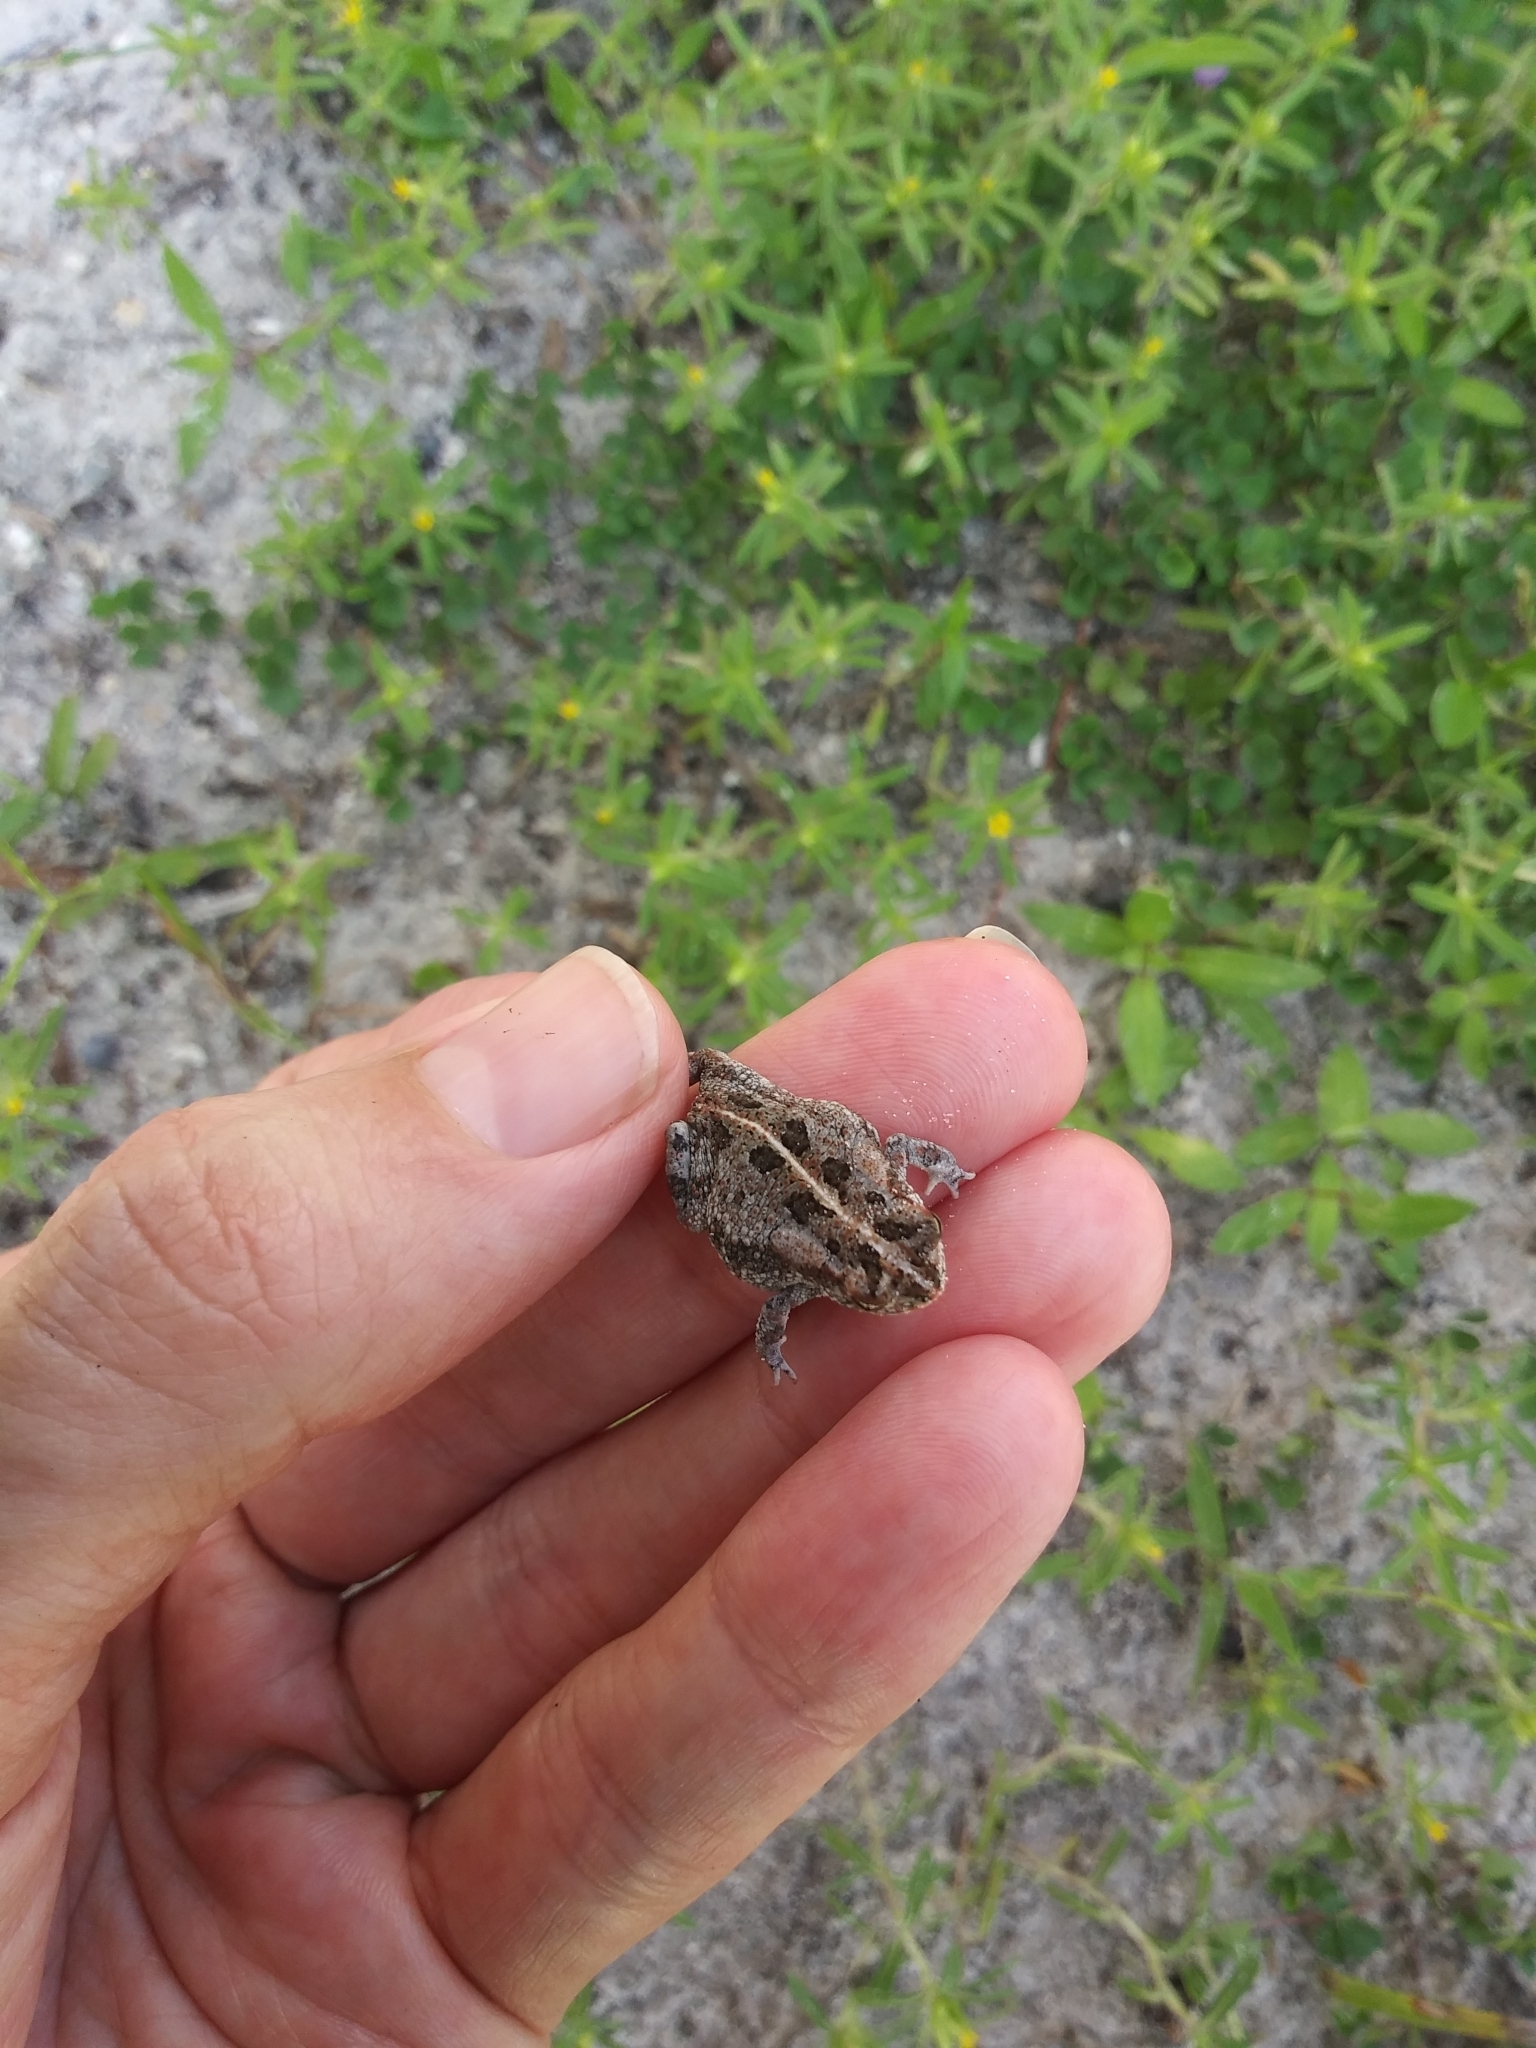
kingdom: Animalia
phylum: Chordata
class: Amphibia
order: Anura
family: Bufonidae
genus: Anaxyrus
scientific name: Anaxyrus quercicus
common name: Oak toad
